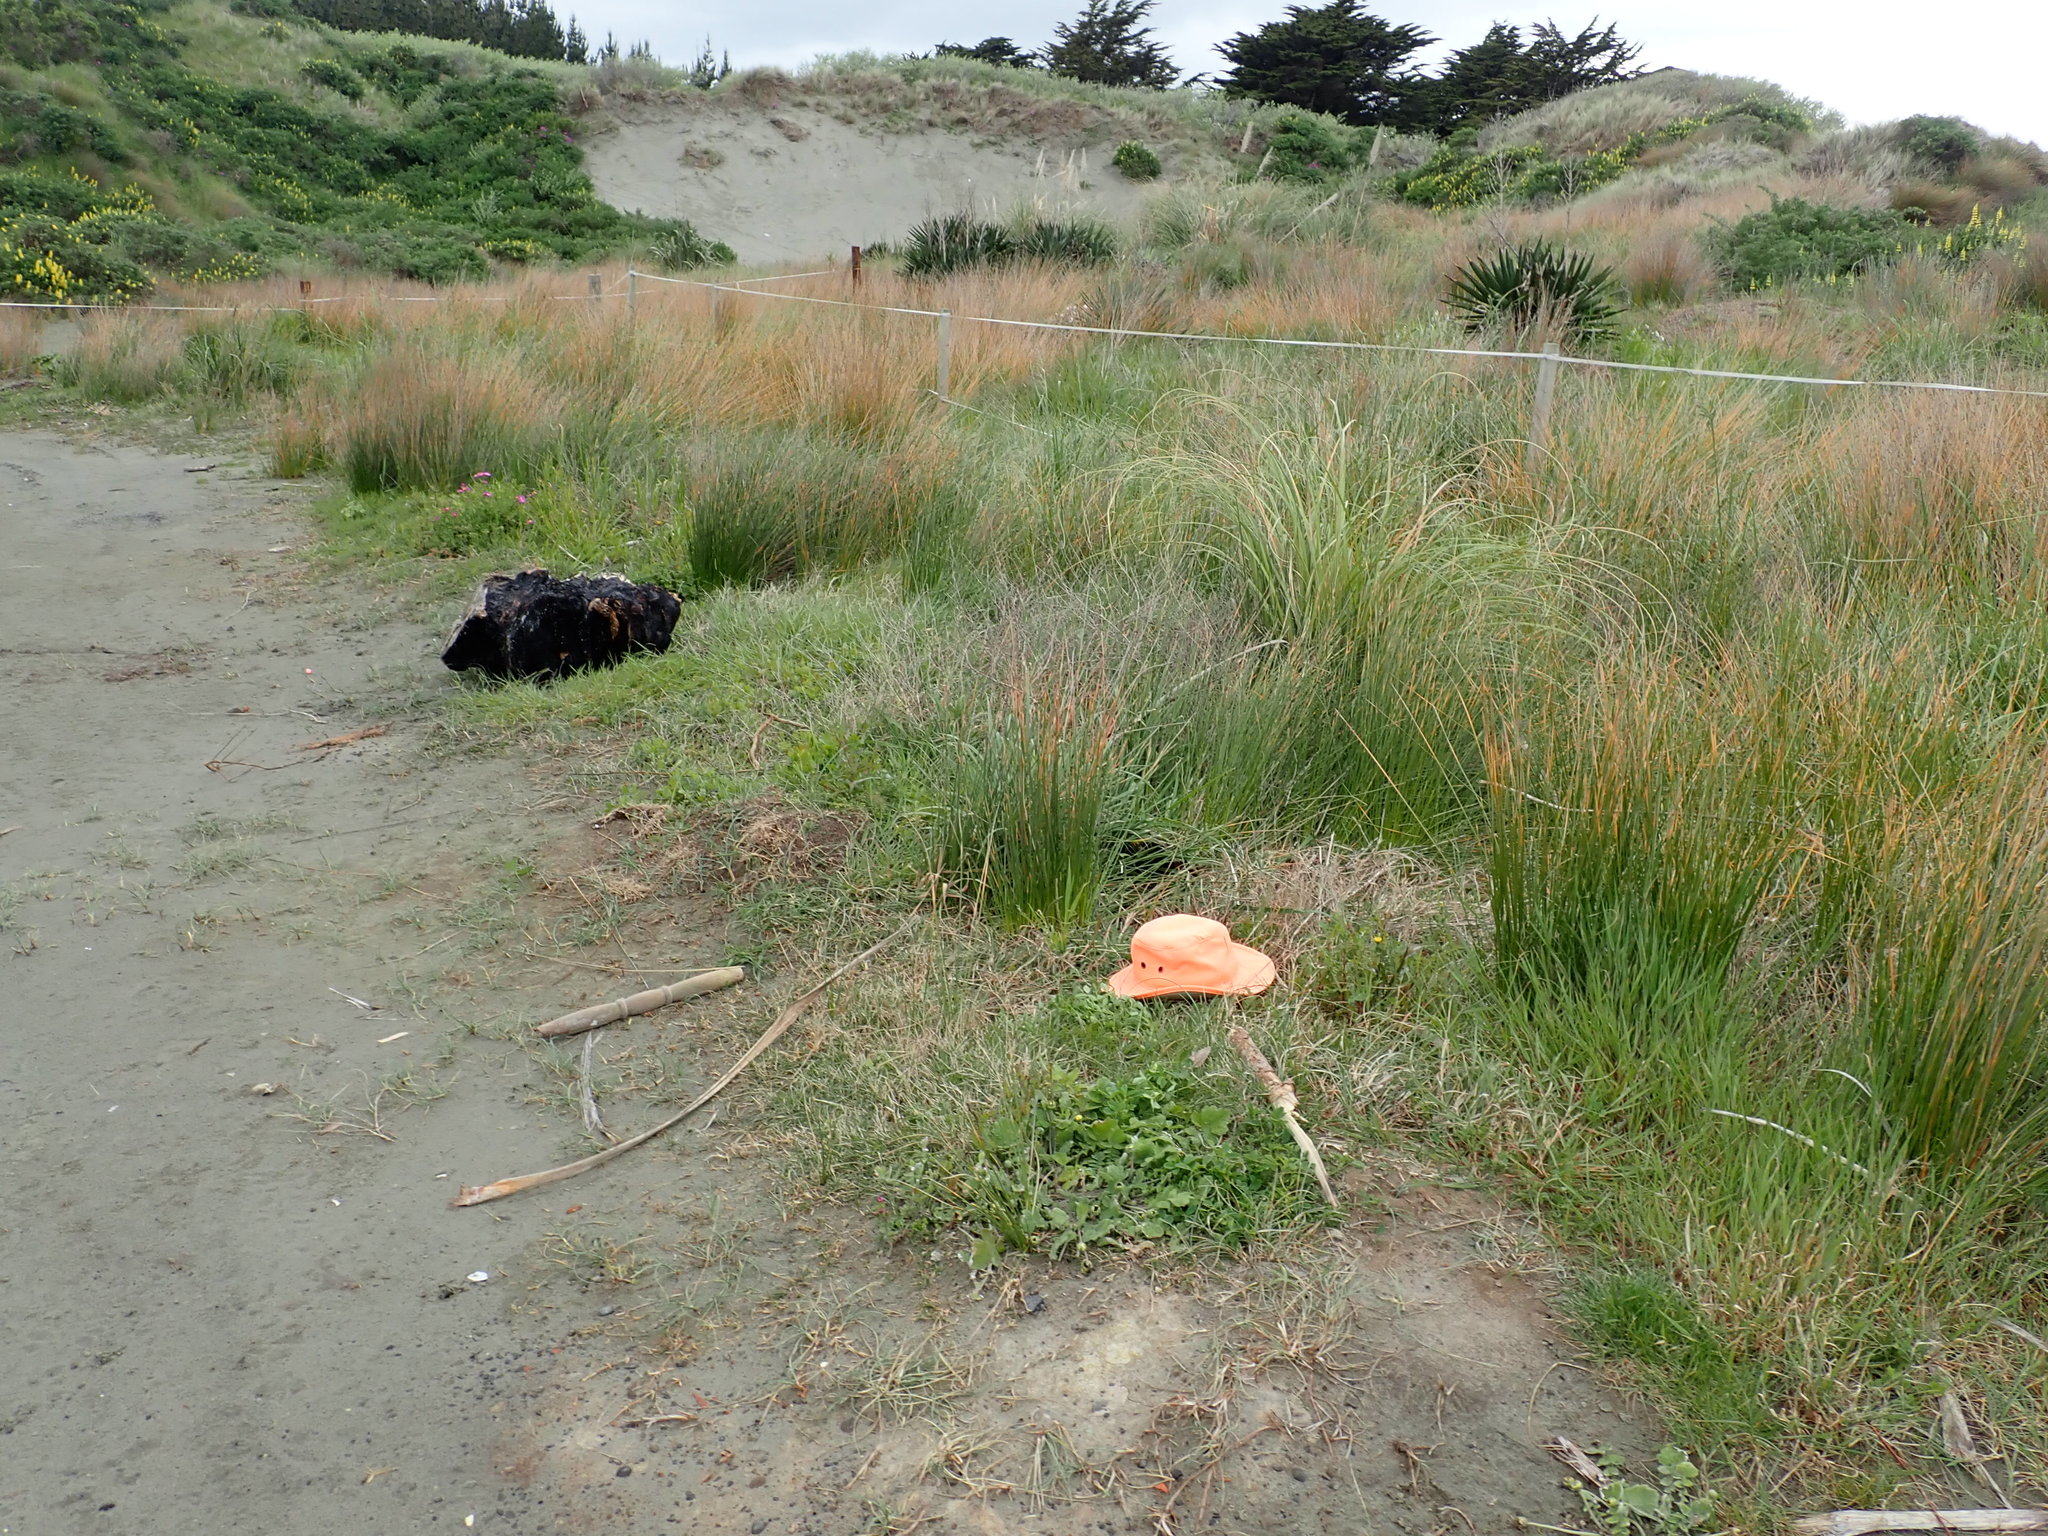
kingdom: Plantae
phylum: Tracheophyta
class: Magnoliopsida
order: Lamiales
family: Plantaginaceae
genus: Plantago
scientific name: Plantago coronopus
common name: Buck's-horn plantain
